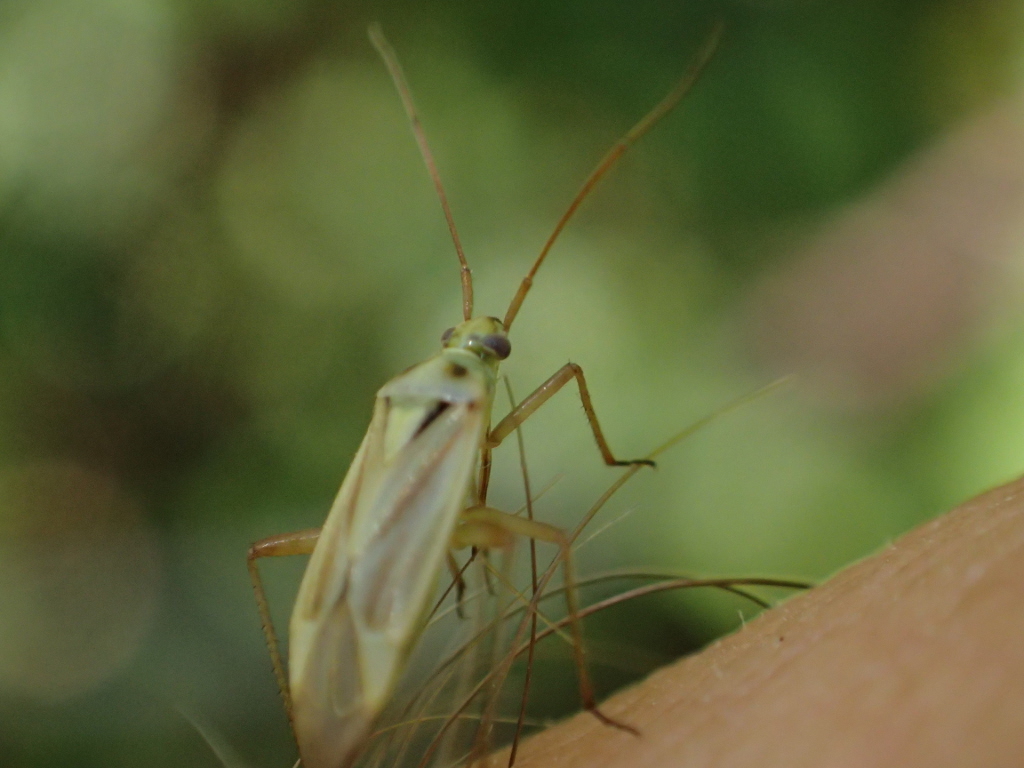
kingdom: Animalia
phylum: Arthropoda
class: Insecta
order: Hemiptera
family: Miridae
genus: Stenotus
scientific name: Stenotus binotatus
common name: Plant bug
